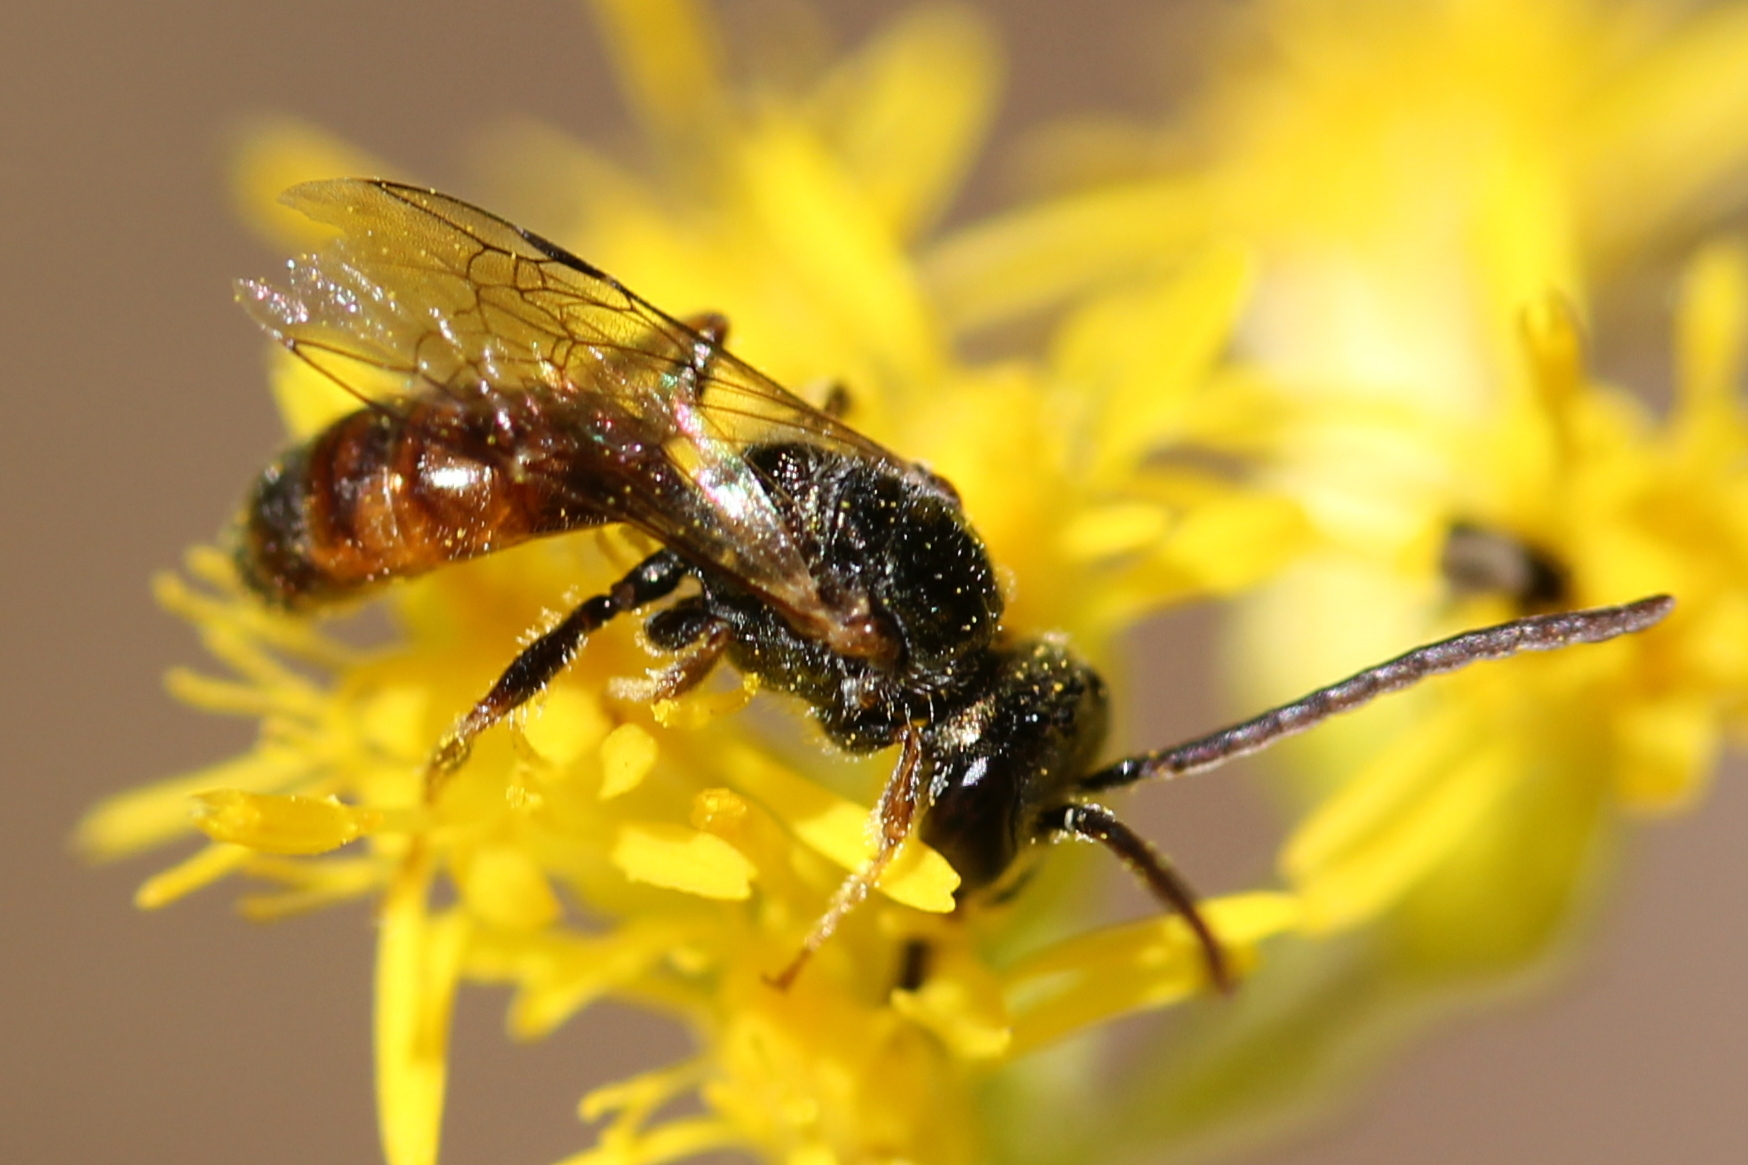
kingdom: Animalia
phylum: Arthropoda
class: Insecta
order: Hymenoptera
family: Halictidae
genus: Lasioglossum
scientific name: Lasioglossum zephyrum
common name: Zephyr sweat bee
